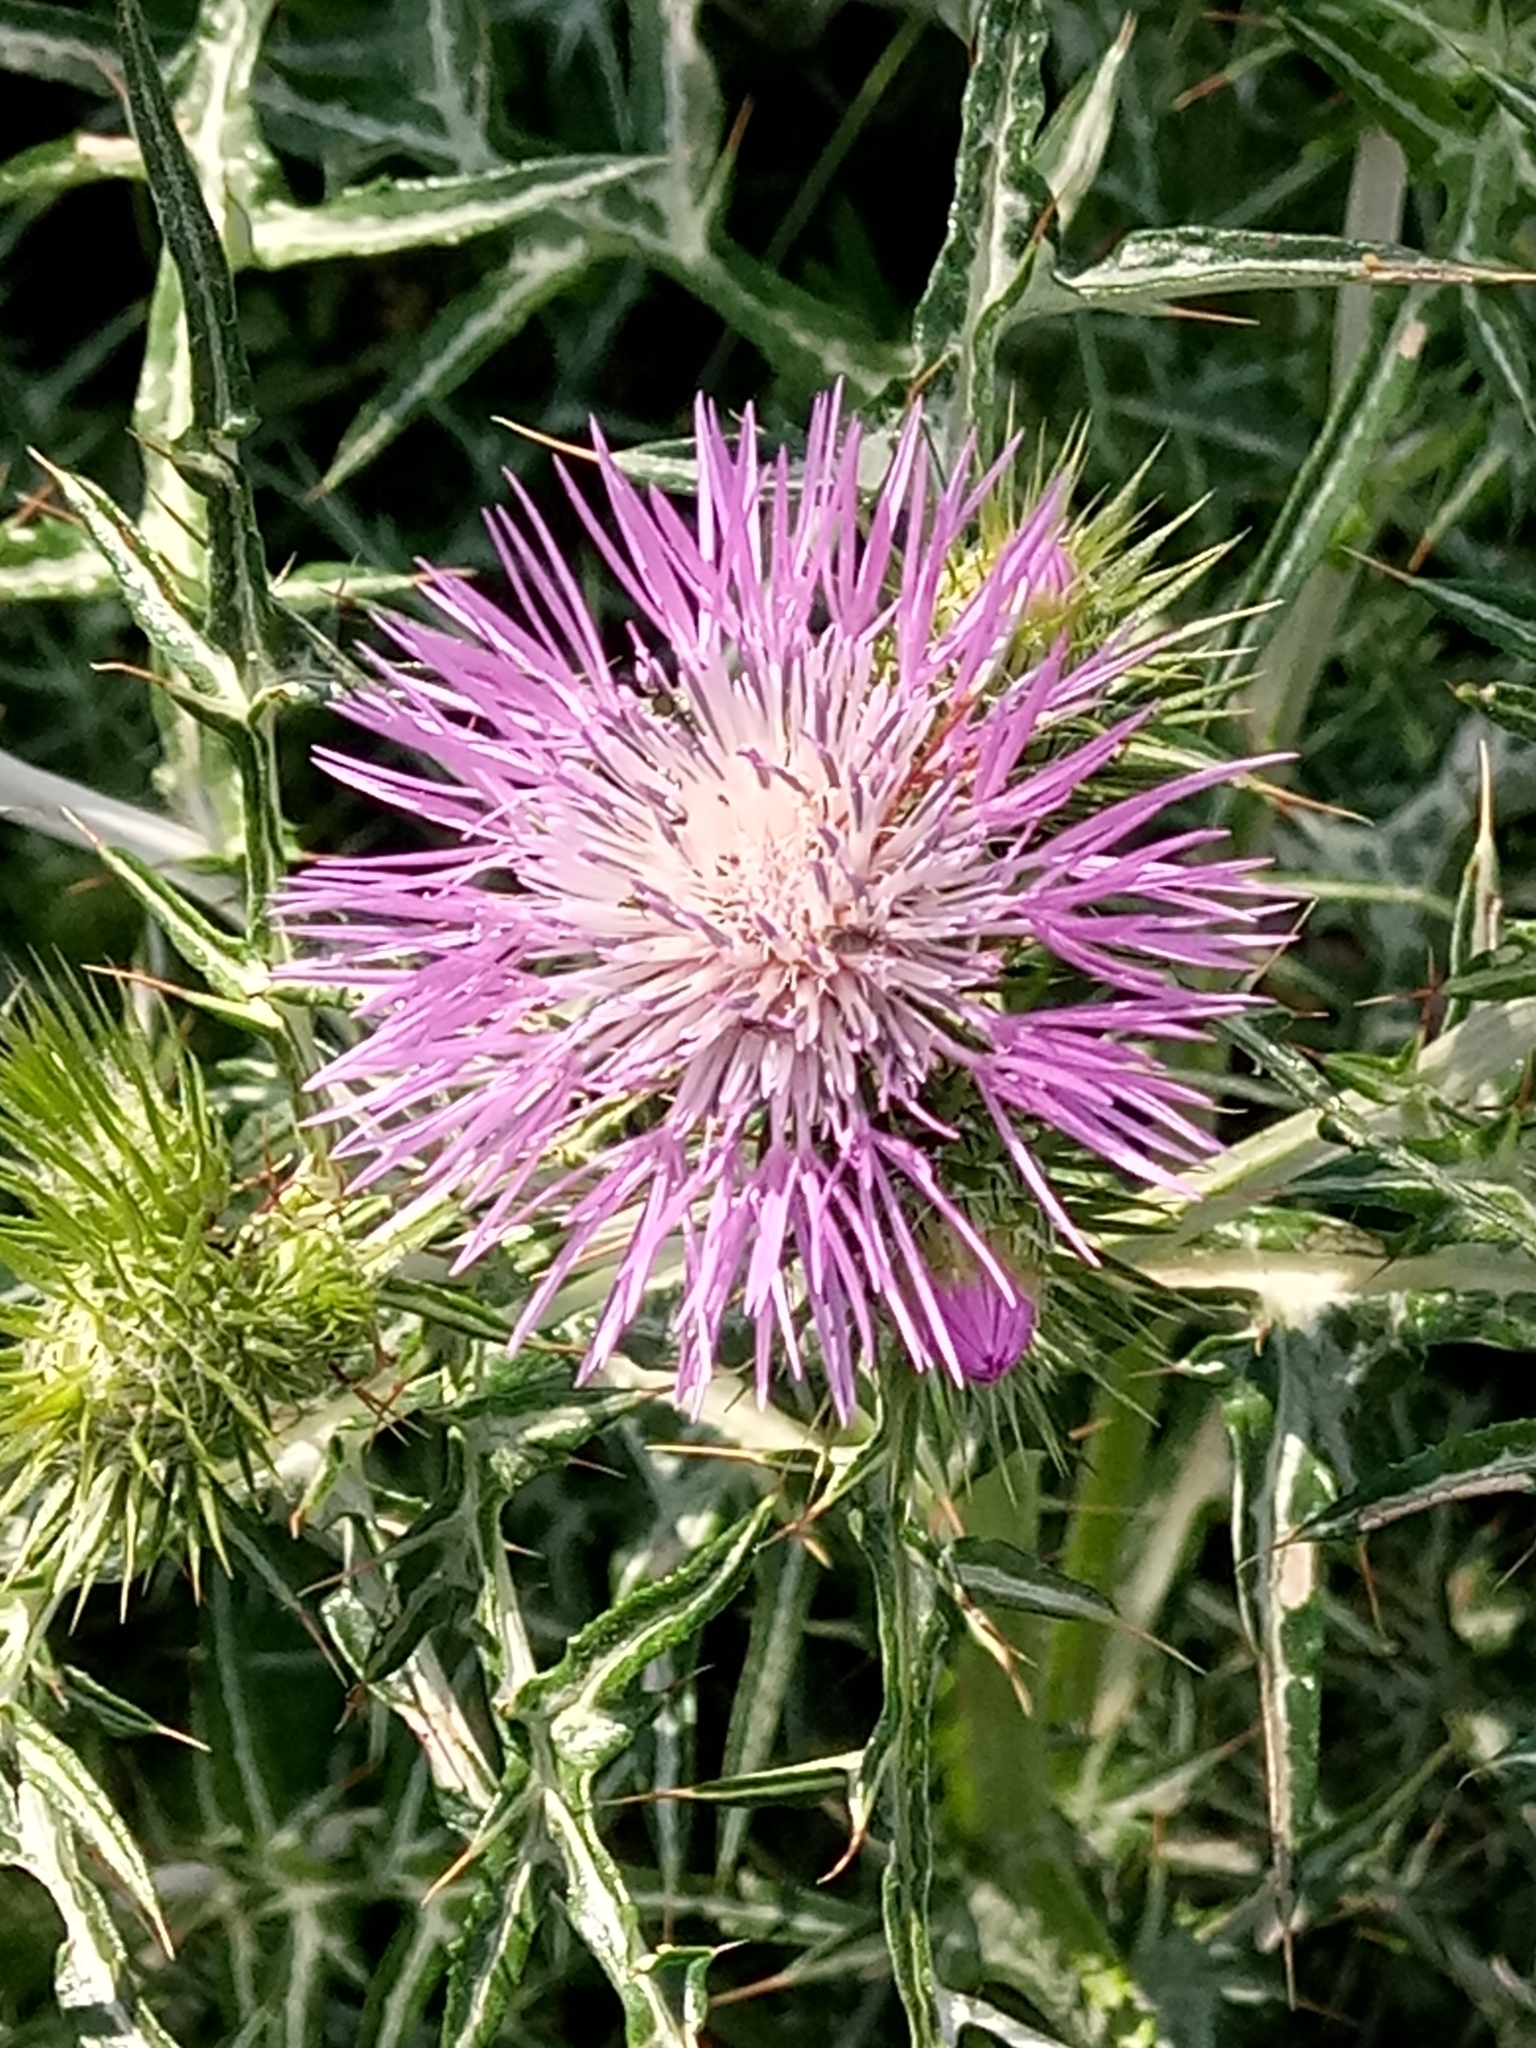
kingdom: Plantae
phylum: Tracheophyta
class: Magnoliopsida
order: Asterales
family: Asteraceae
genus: Galactites
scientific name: Galactites tomentosa
